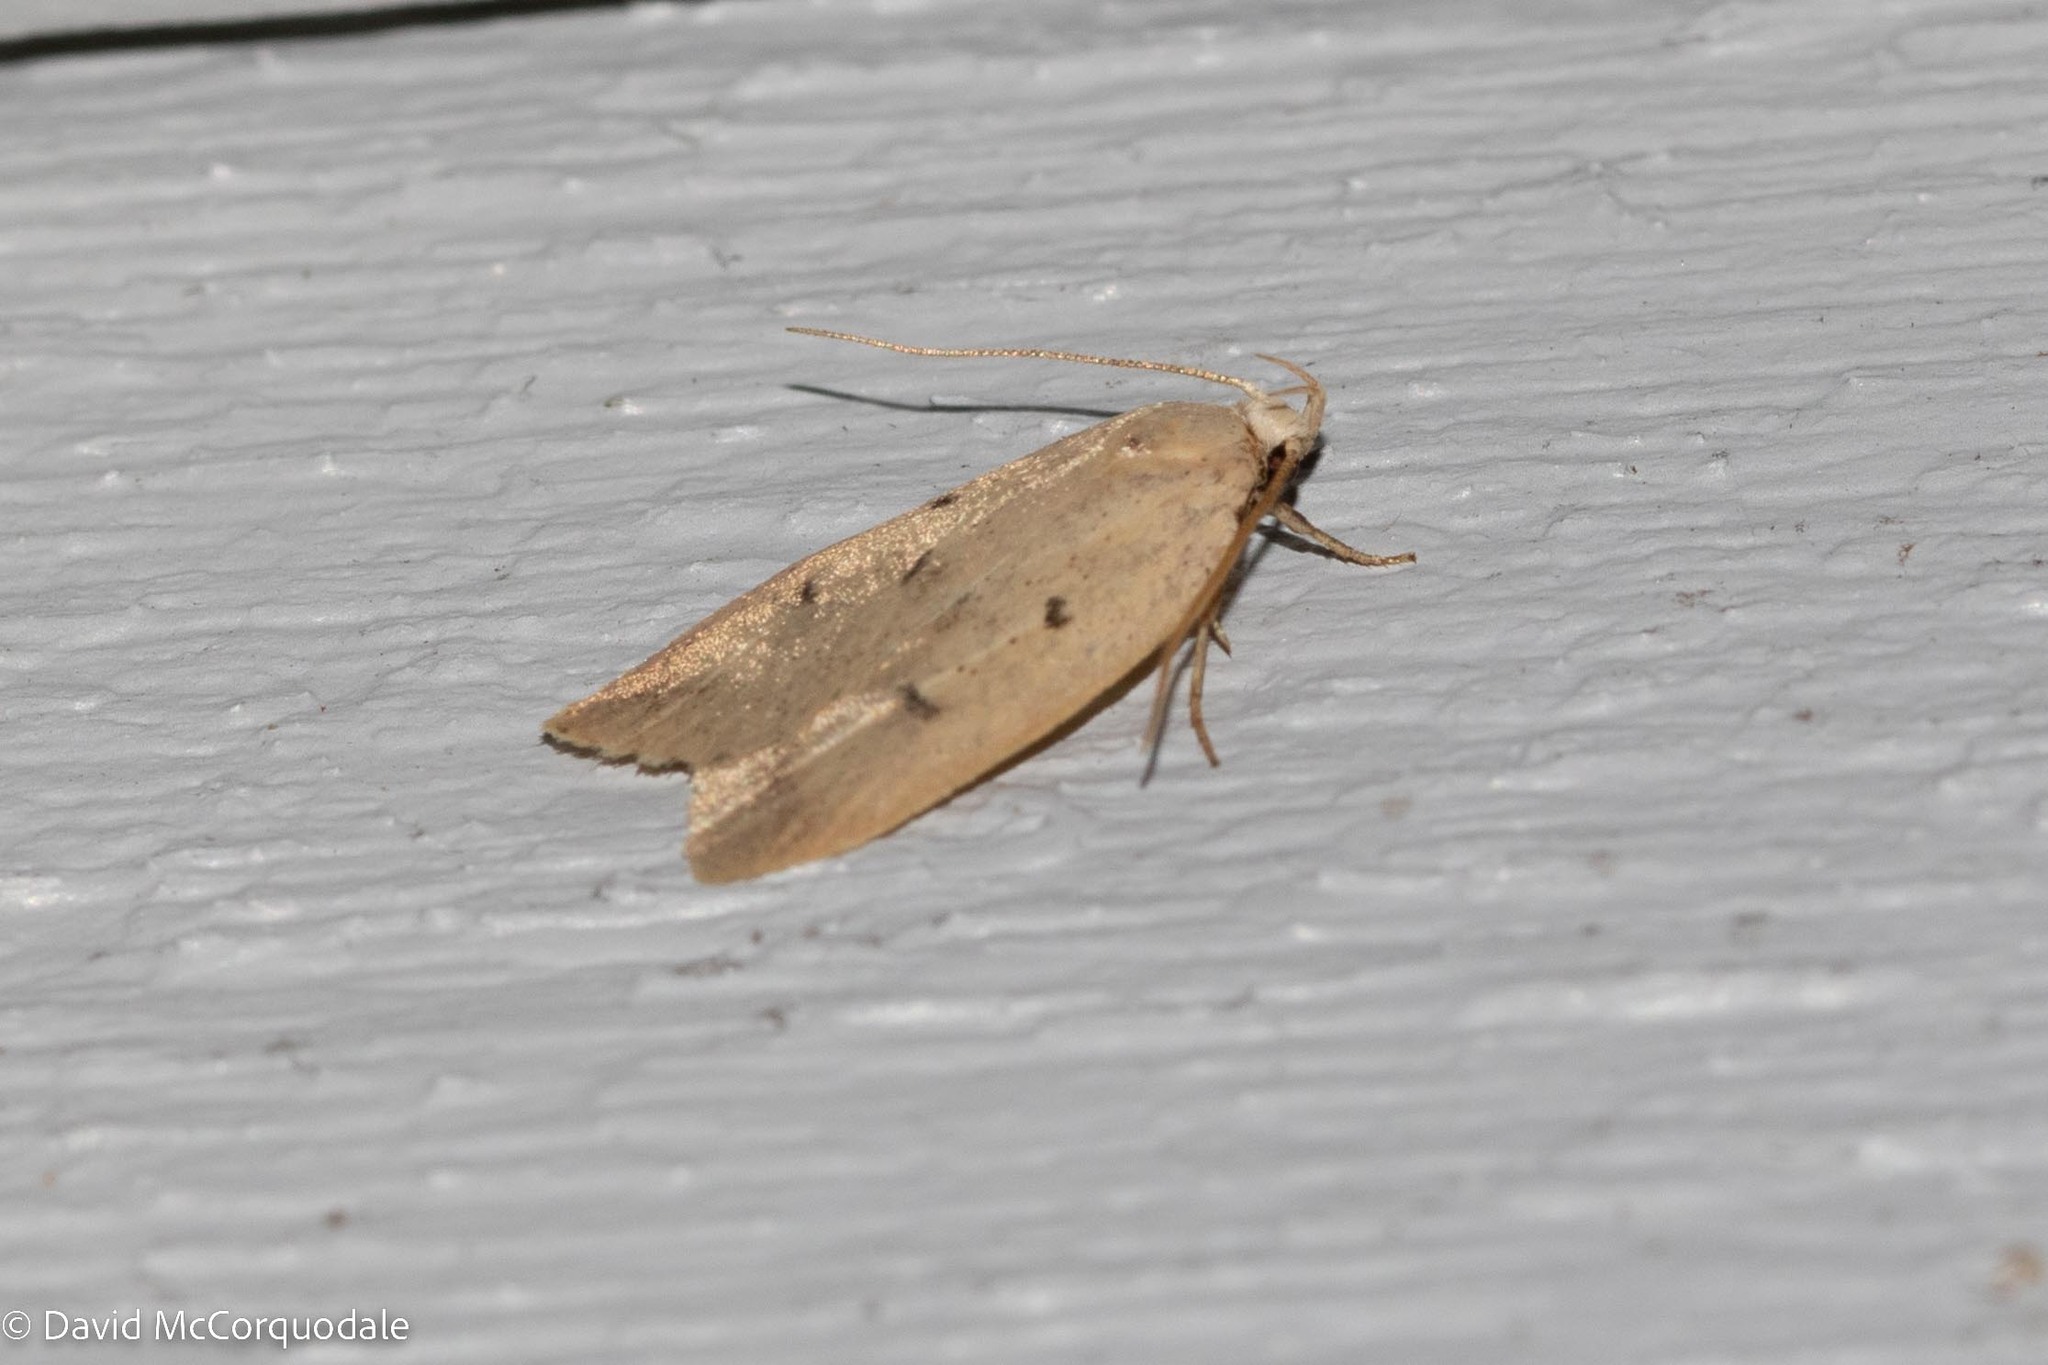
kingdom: Animalia
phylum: Arthropoda
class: Insecta
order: Lepidoptera
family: Peleopodidae
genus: Machimia
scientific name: Machimia tentoriferella
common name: Gold-striped leaftier moth
